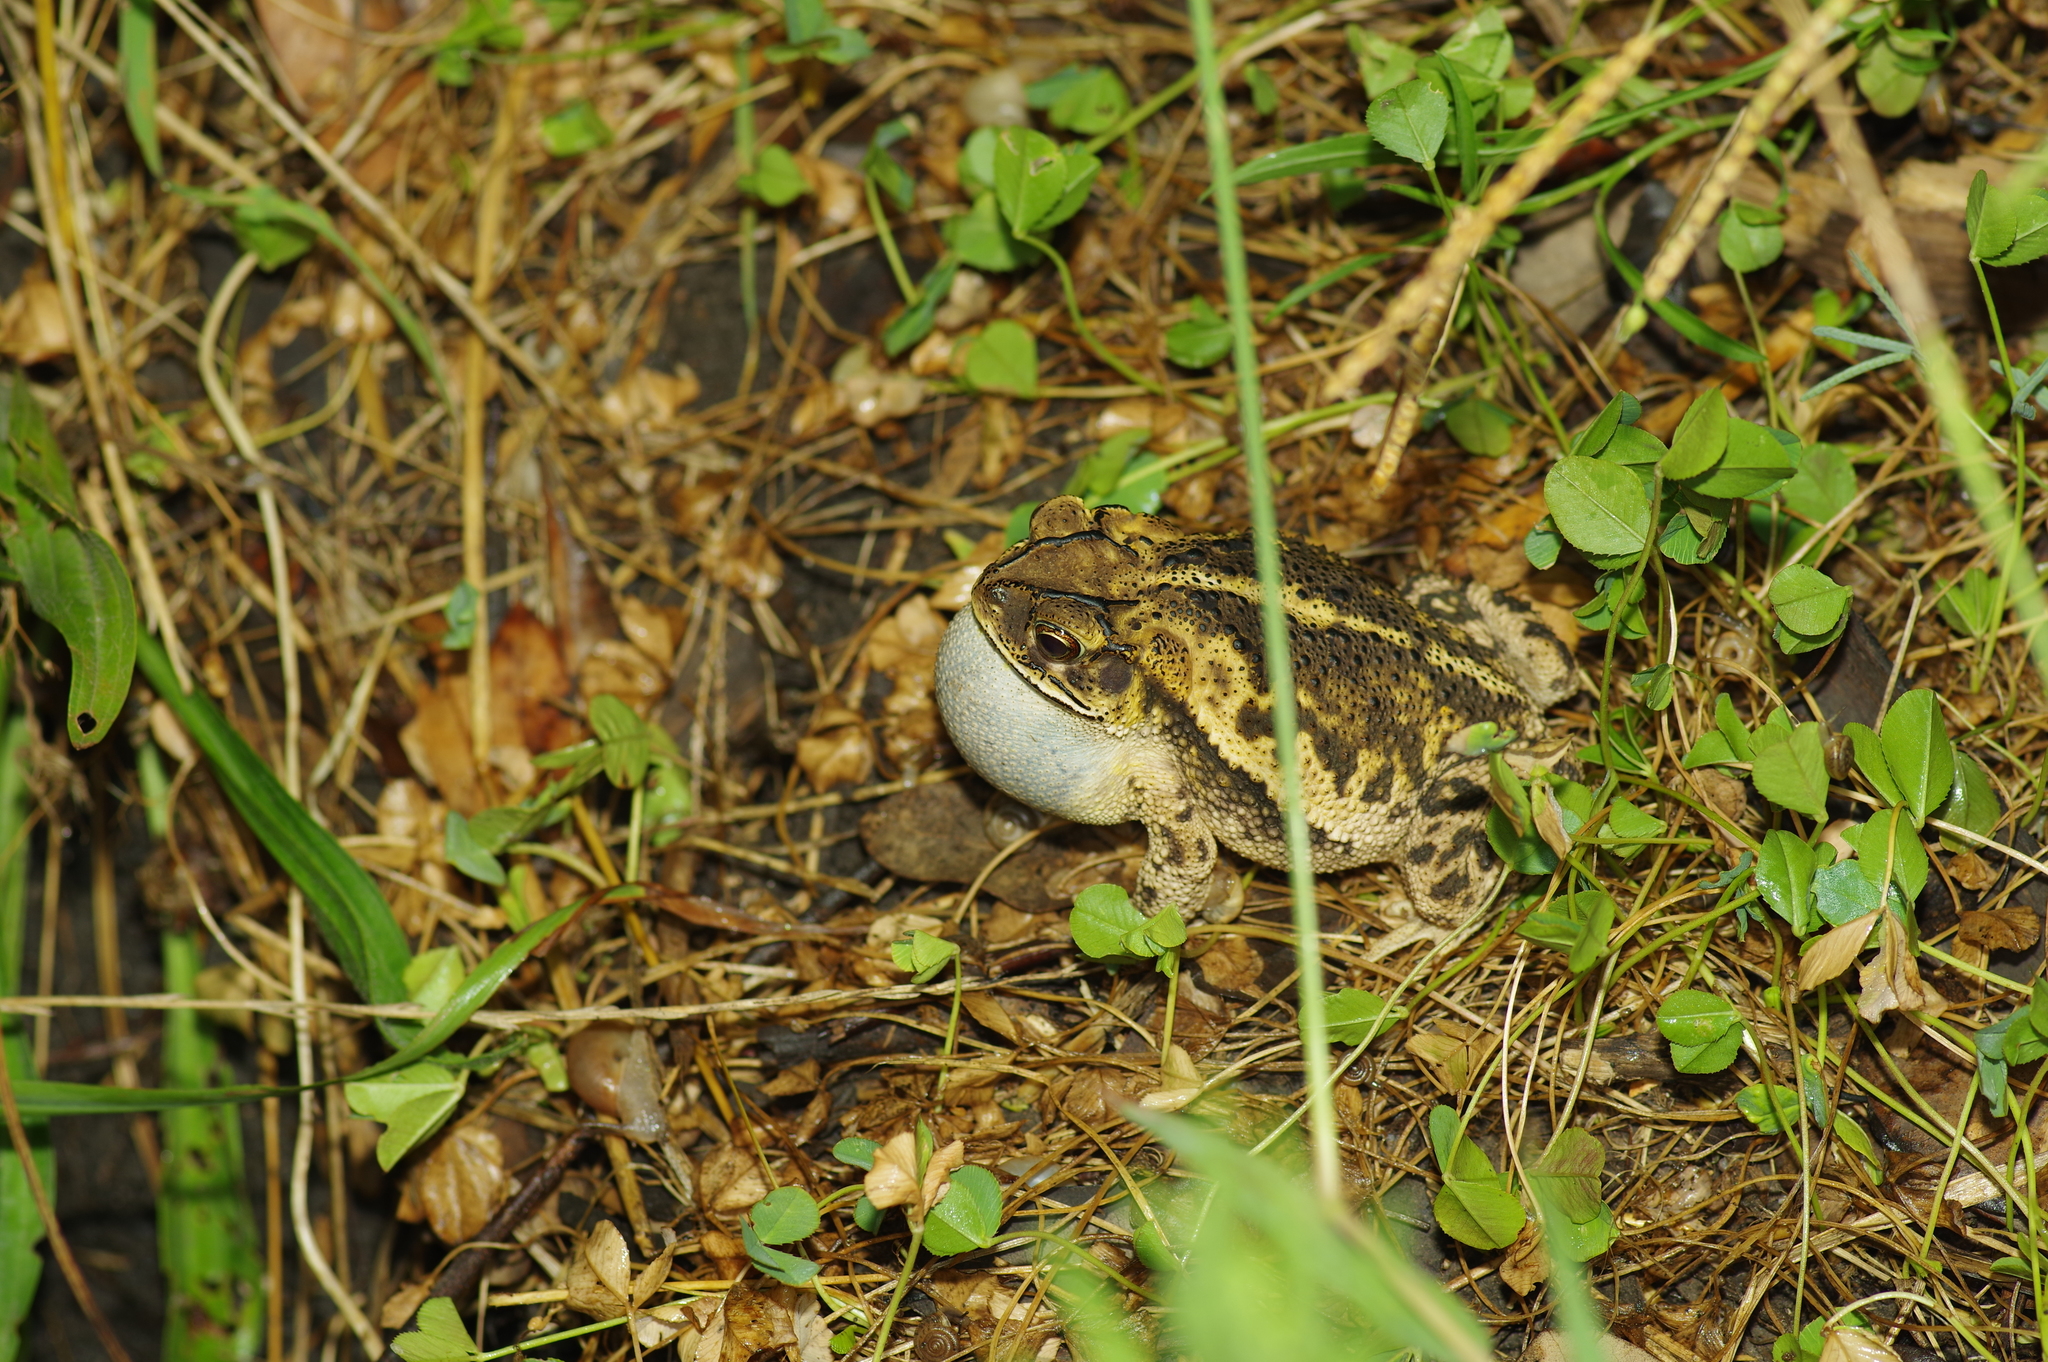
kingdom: Animalia
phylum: Chordata
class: Amphibia
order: Anura
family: Bufonidae
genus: Incilius
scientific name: Incilius nebulifer
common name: Gulf coast toad
